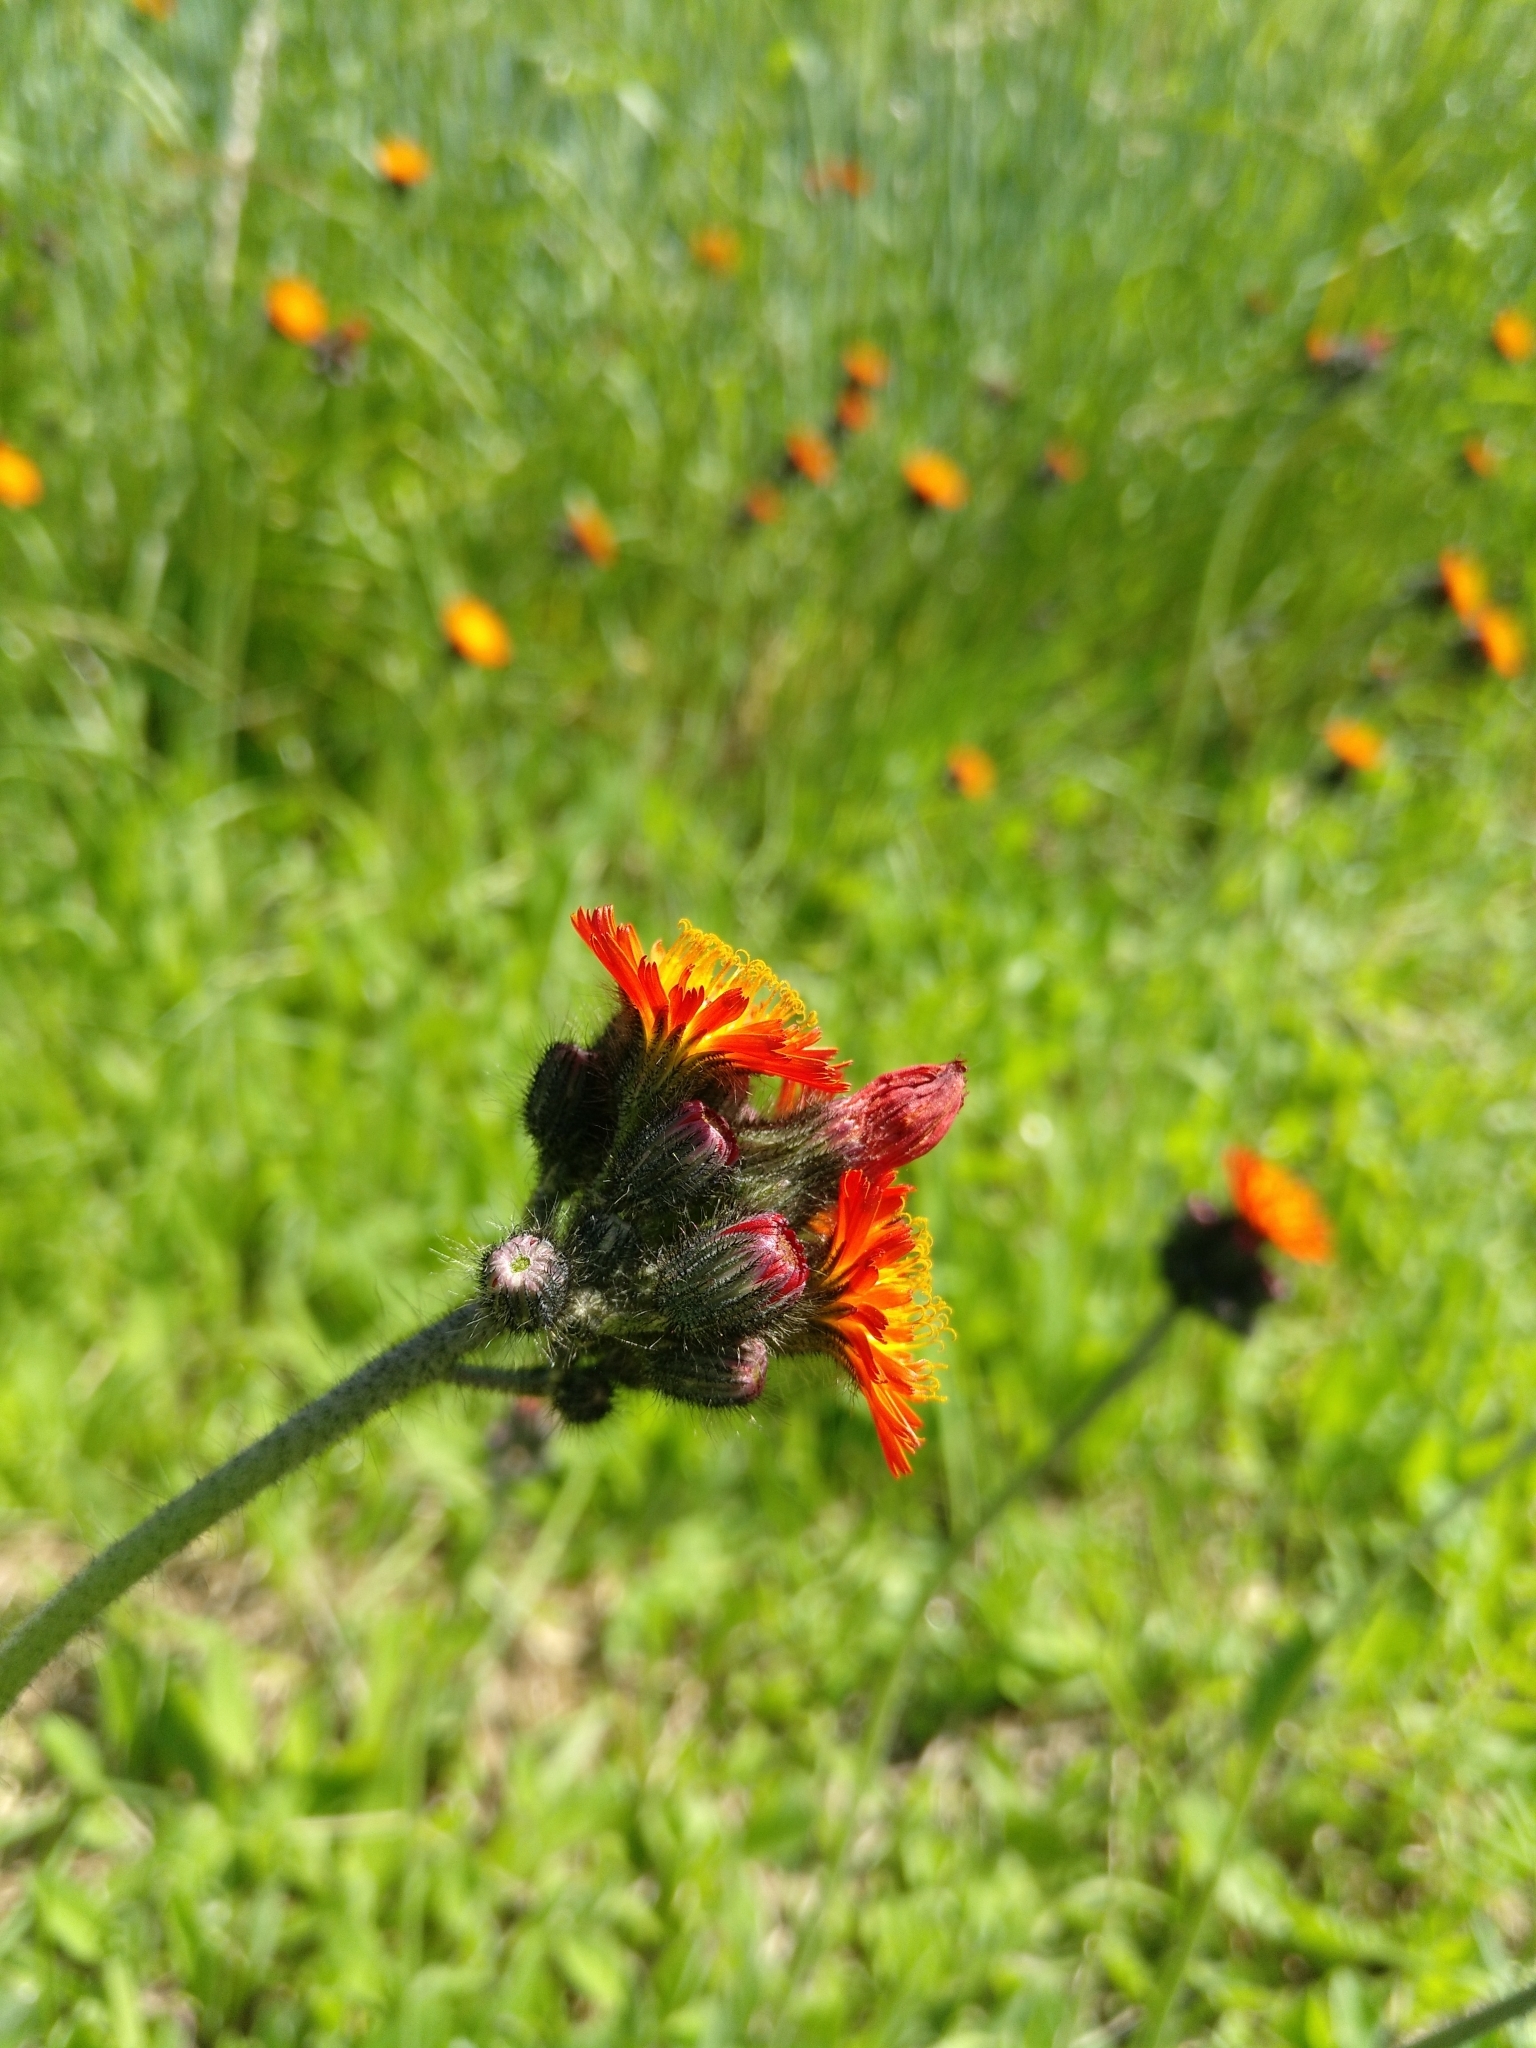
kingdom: Plantae
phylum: Tracheophyta
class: Magnoliopsida
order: Asterales
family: Asteraceae
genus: Pilosella
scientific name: Pilosella aurantiaca
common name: Fox-and-cubs
